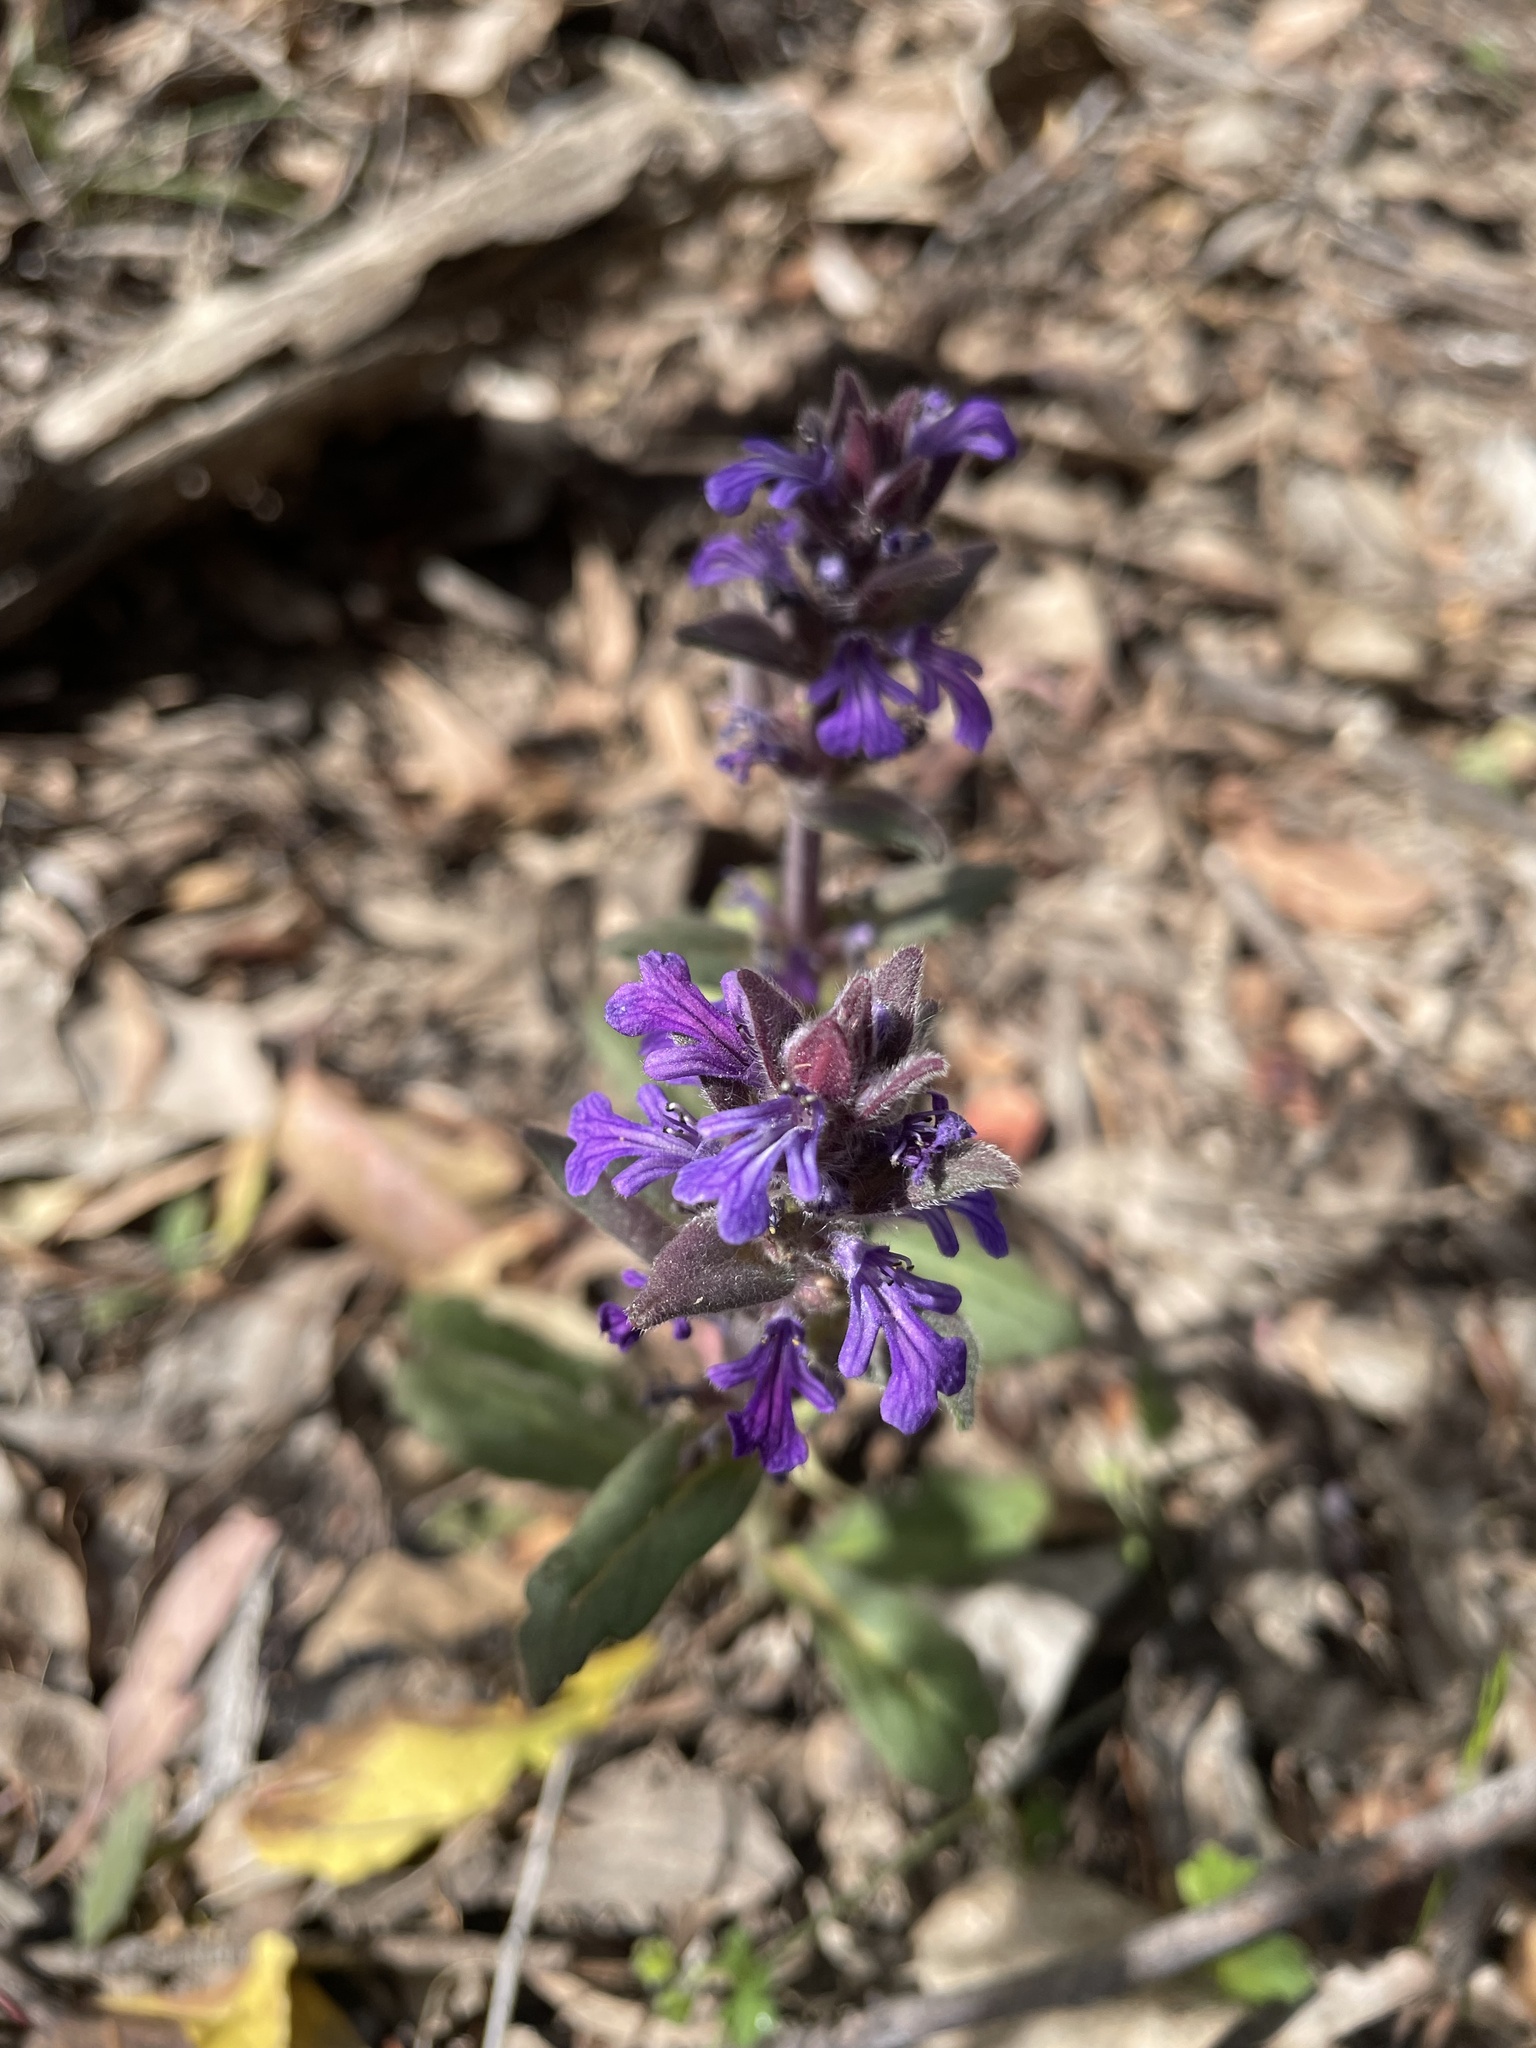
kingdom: Plantae
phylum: Tracheophyta
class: Magnoliopsida
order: Lamiales
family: Lamiaceae
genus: Ajuga
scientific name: Ajuga australis
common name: Australian bugle
